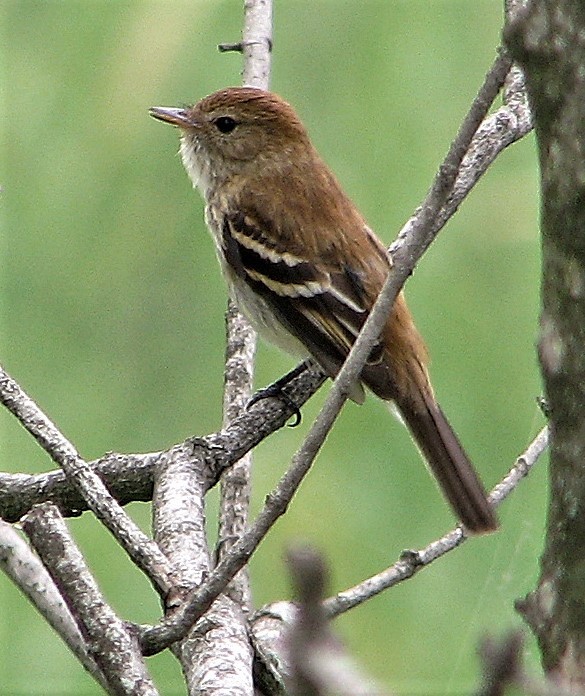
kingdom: Animalia
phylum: Chordata
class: Aves
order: Passeriformes
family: Tyrannidae
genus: Myiophobus
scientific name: Myiophobus fasciatus
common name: Bran-colored flycatcher
